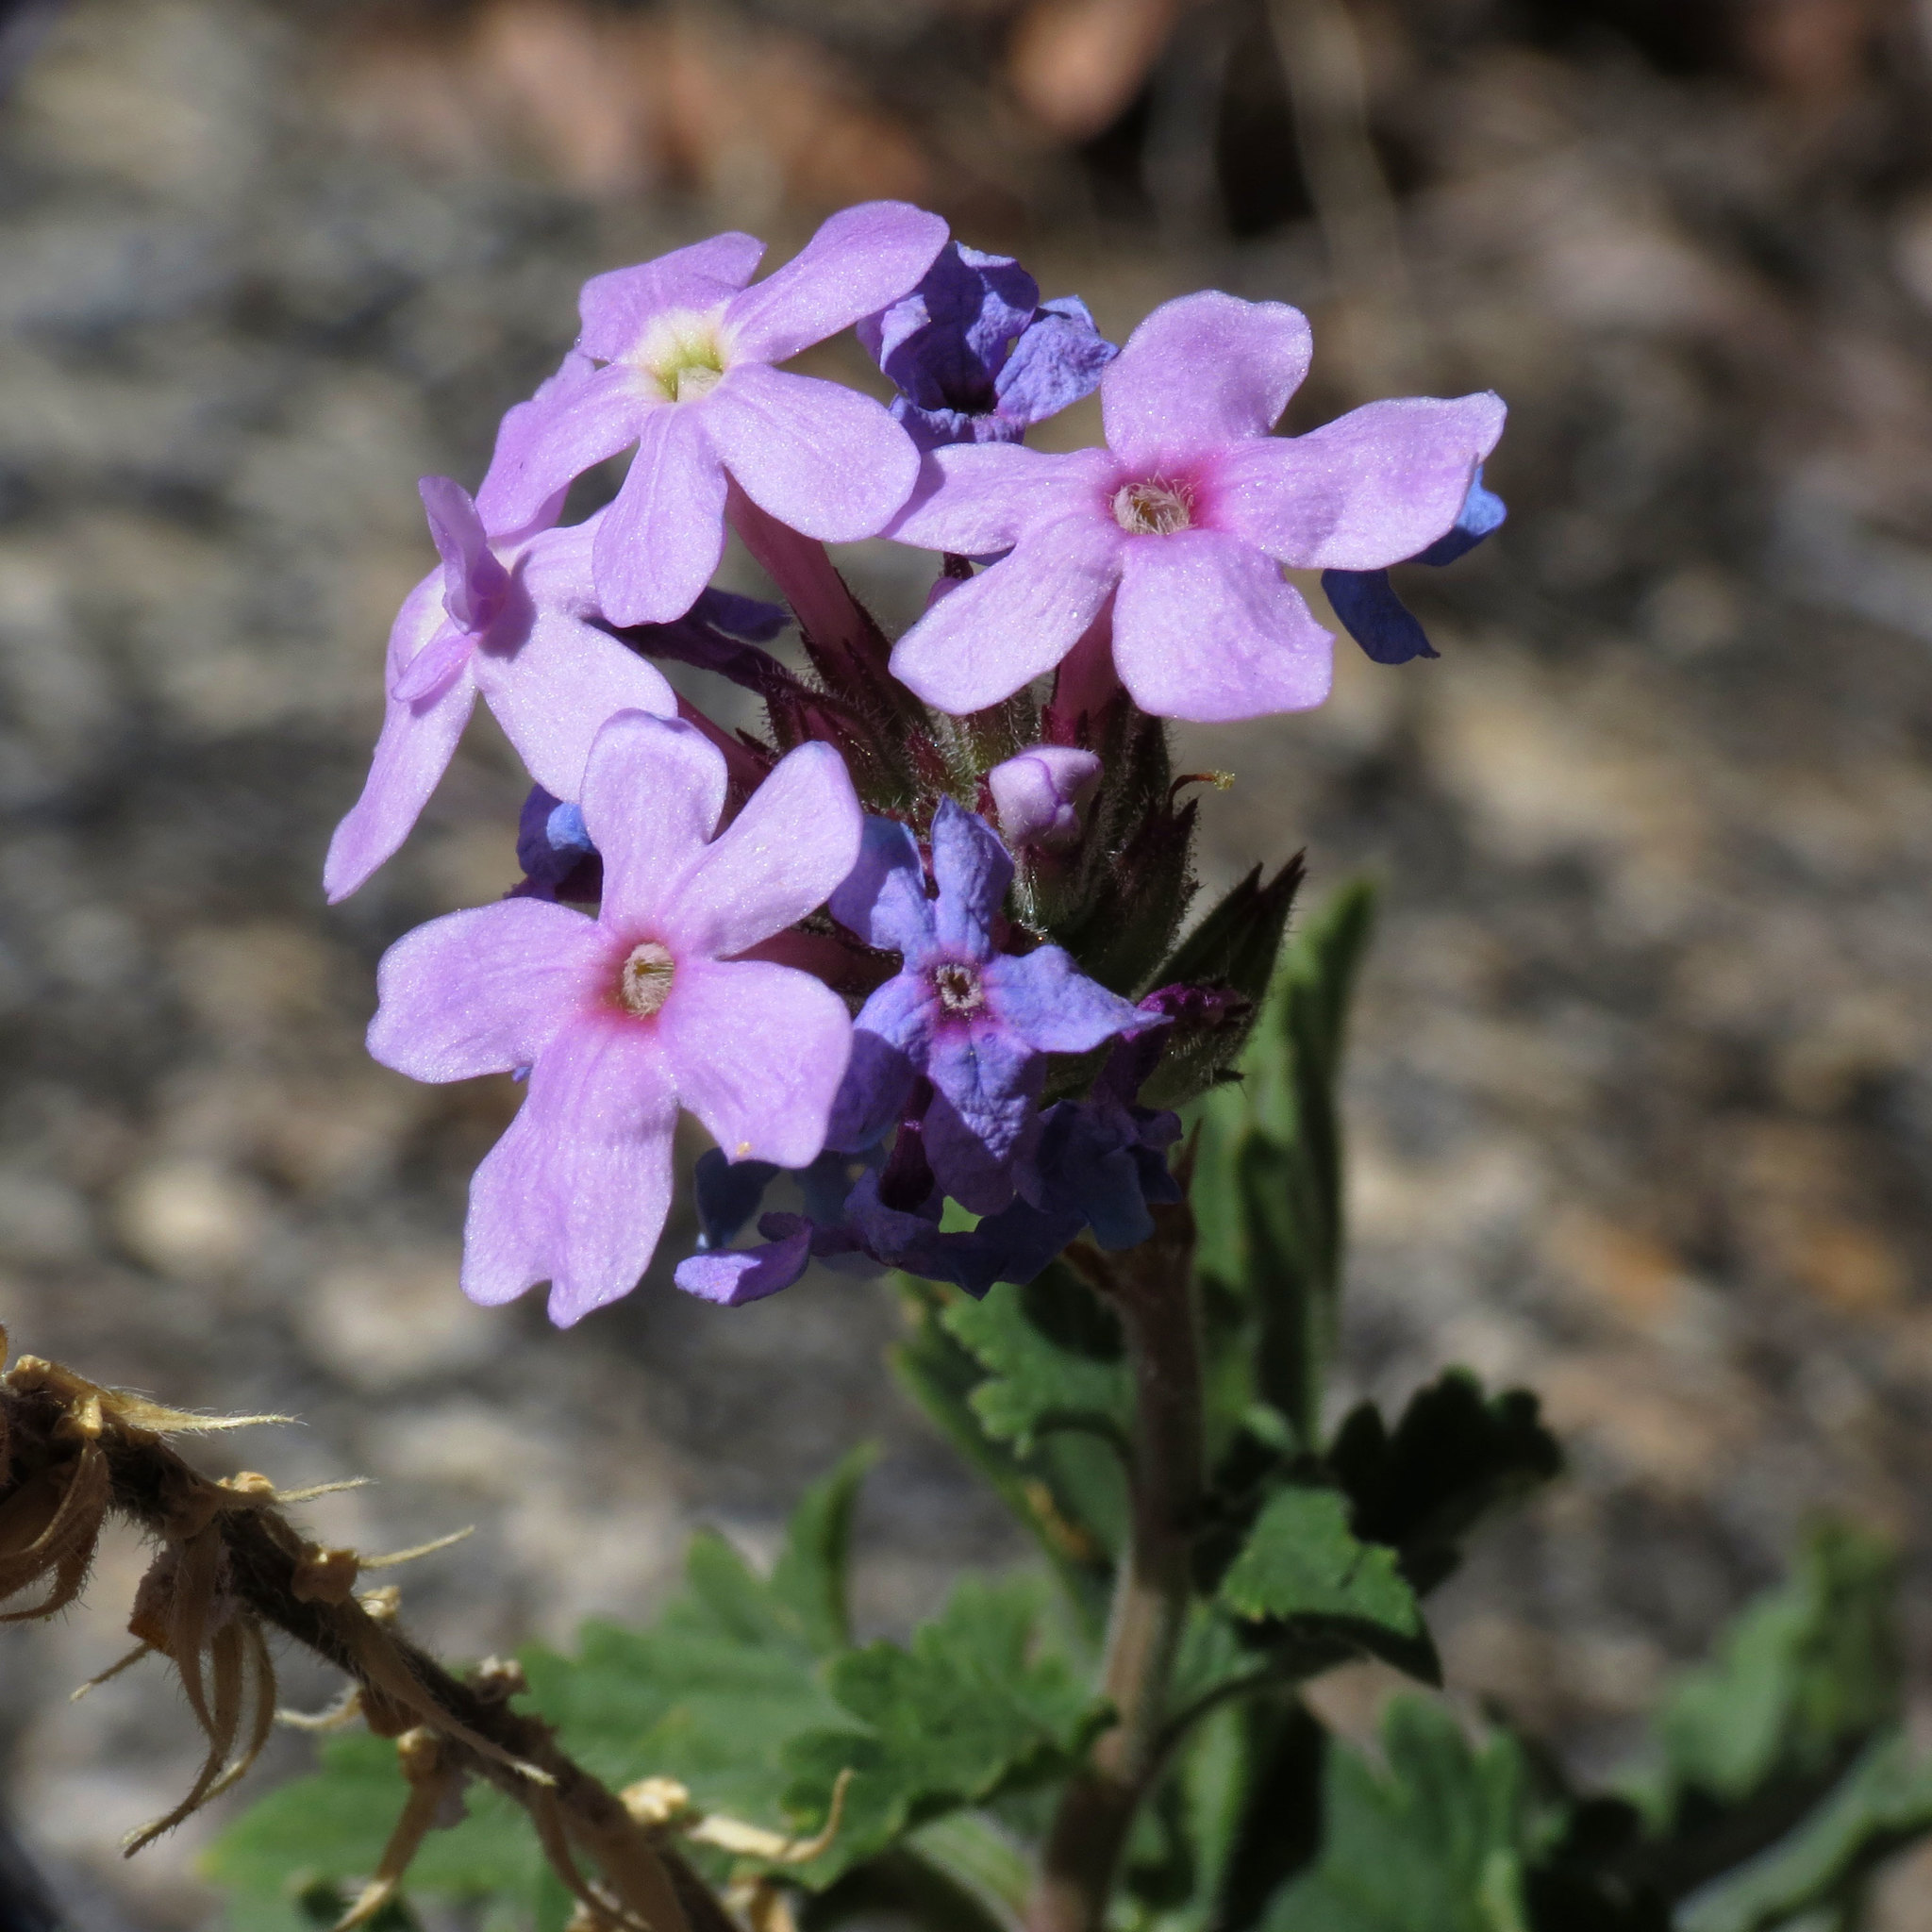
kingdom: Plantae
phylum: Tracheophyta
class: Magnoliopsida
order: Lamiales
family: Verbenaceae
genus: Verbena
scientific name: Verbena gooddingii
